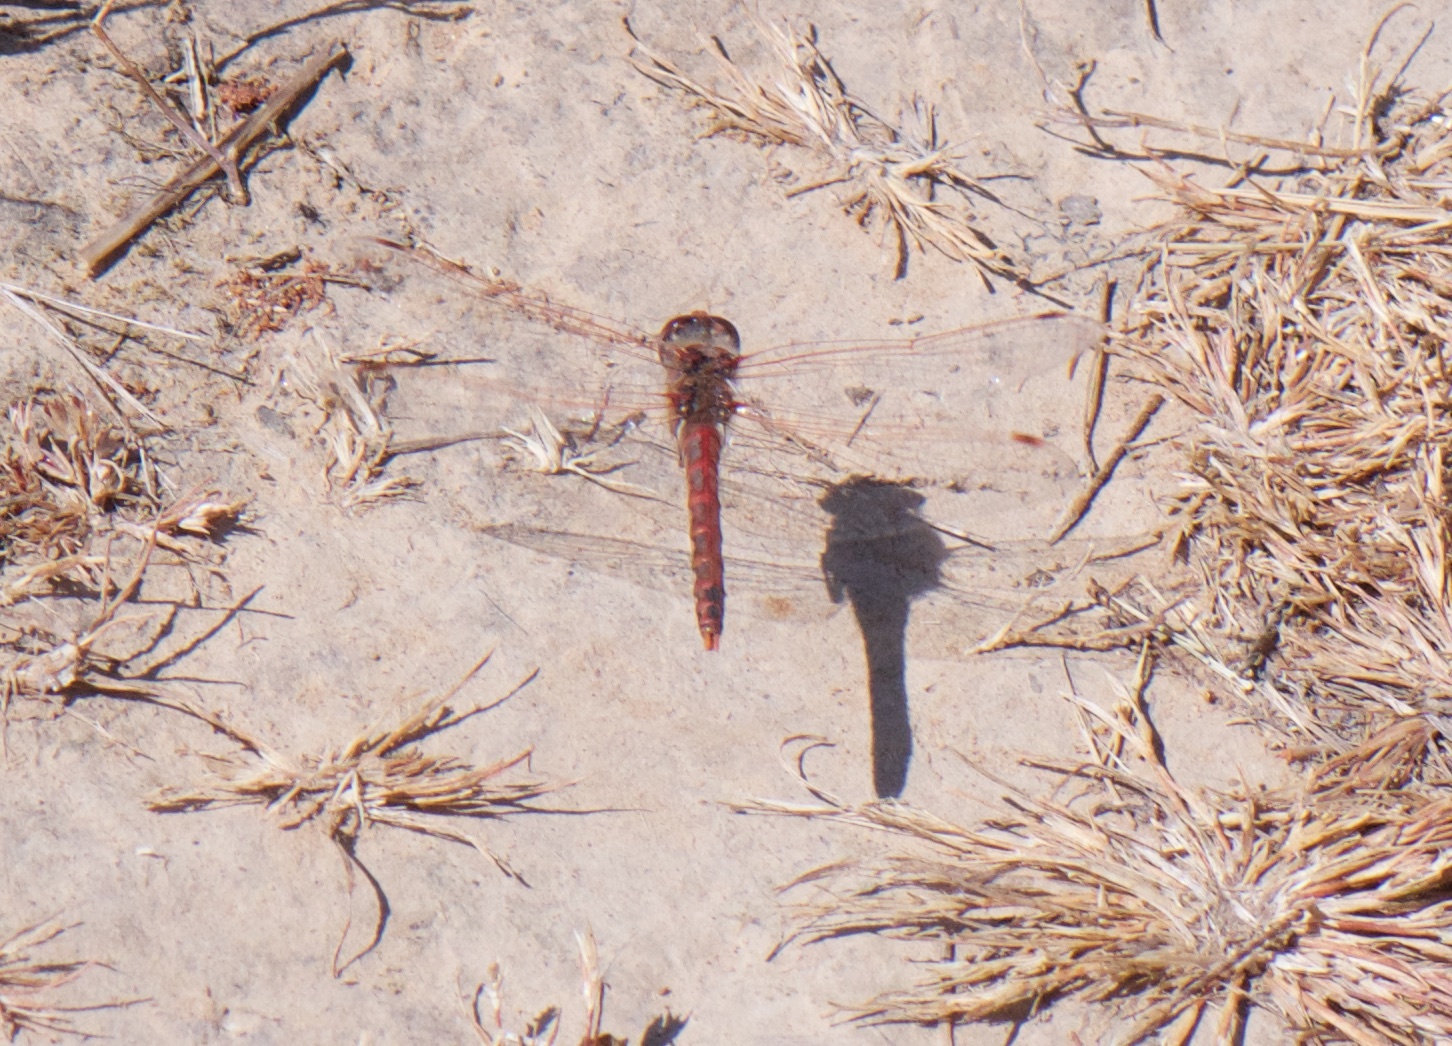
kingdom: Animalia
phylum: Arthropoda
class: Insecta
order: Odonata
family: Libellulidae
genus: Sympetrum
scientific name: Sympetrum corruptum
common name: Variegated meadowhawk
